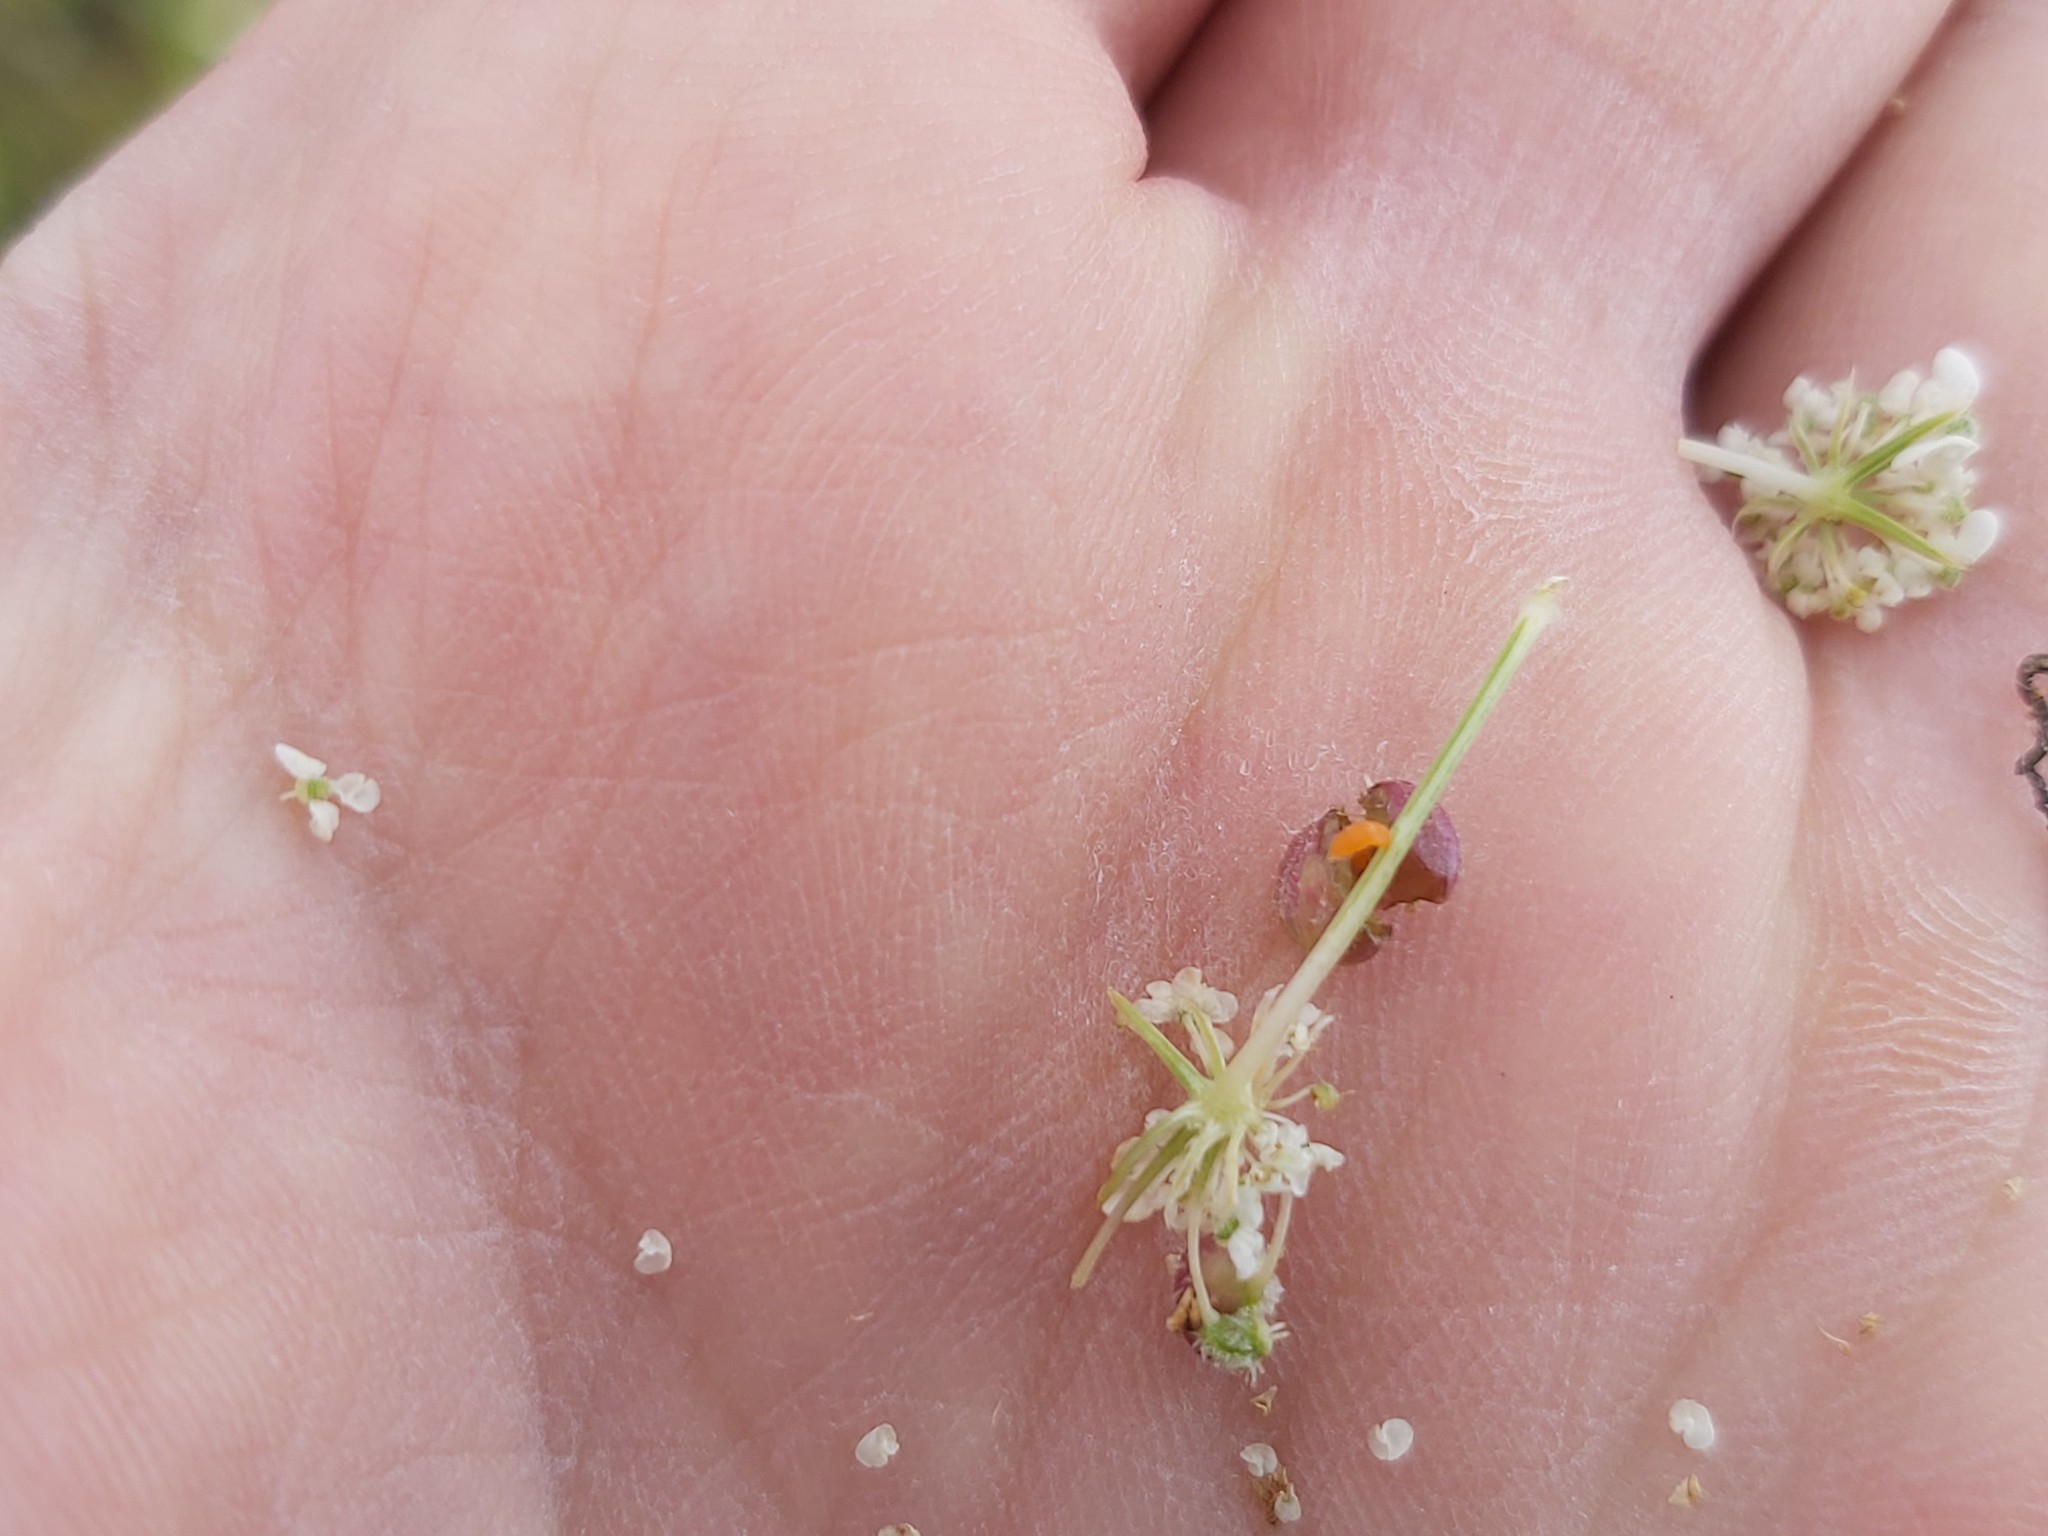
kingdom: Animalia
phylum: Arthropoda
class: Insecta
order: Diptera
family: Cecidomyiidae
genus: Kiefferia
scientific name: Kiefferia pericarpiicola
